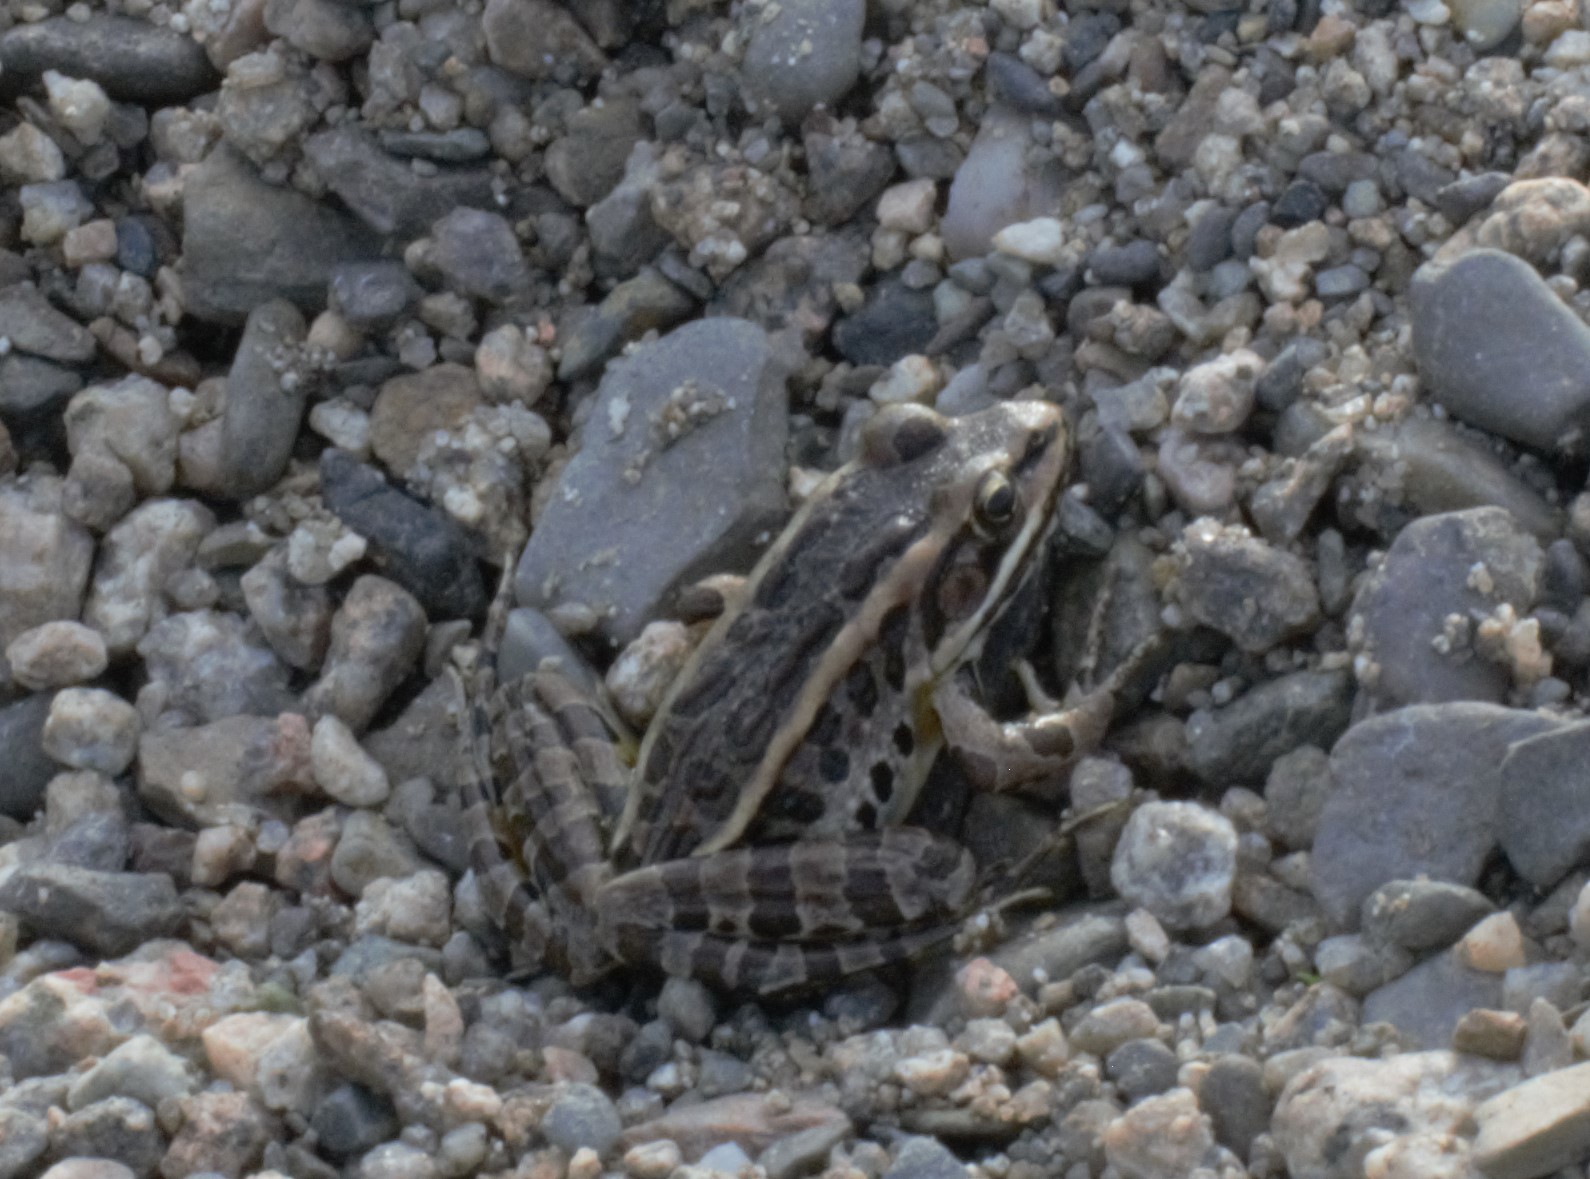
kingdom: Animalia
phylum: Chordata
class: Amphibia
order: Anura
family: Ranidae
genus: Lithobates
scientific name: Lithobates palustris
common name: Pickerel frog
